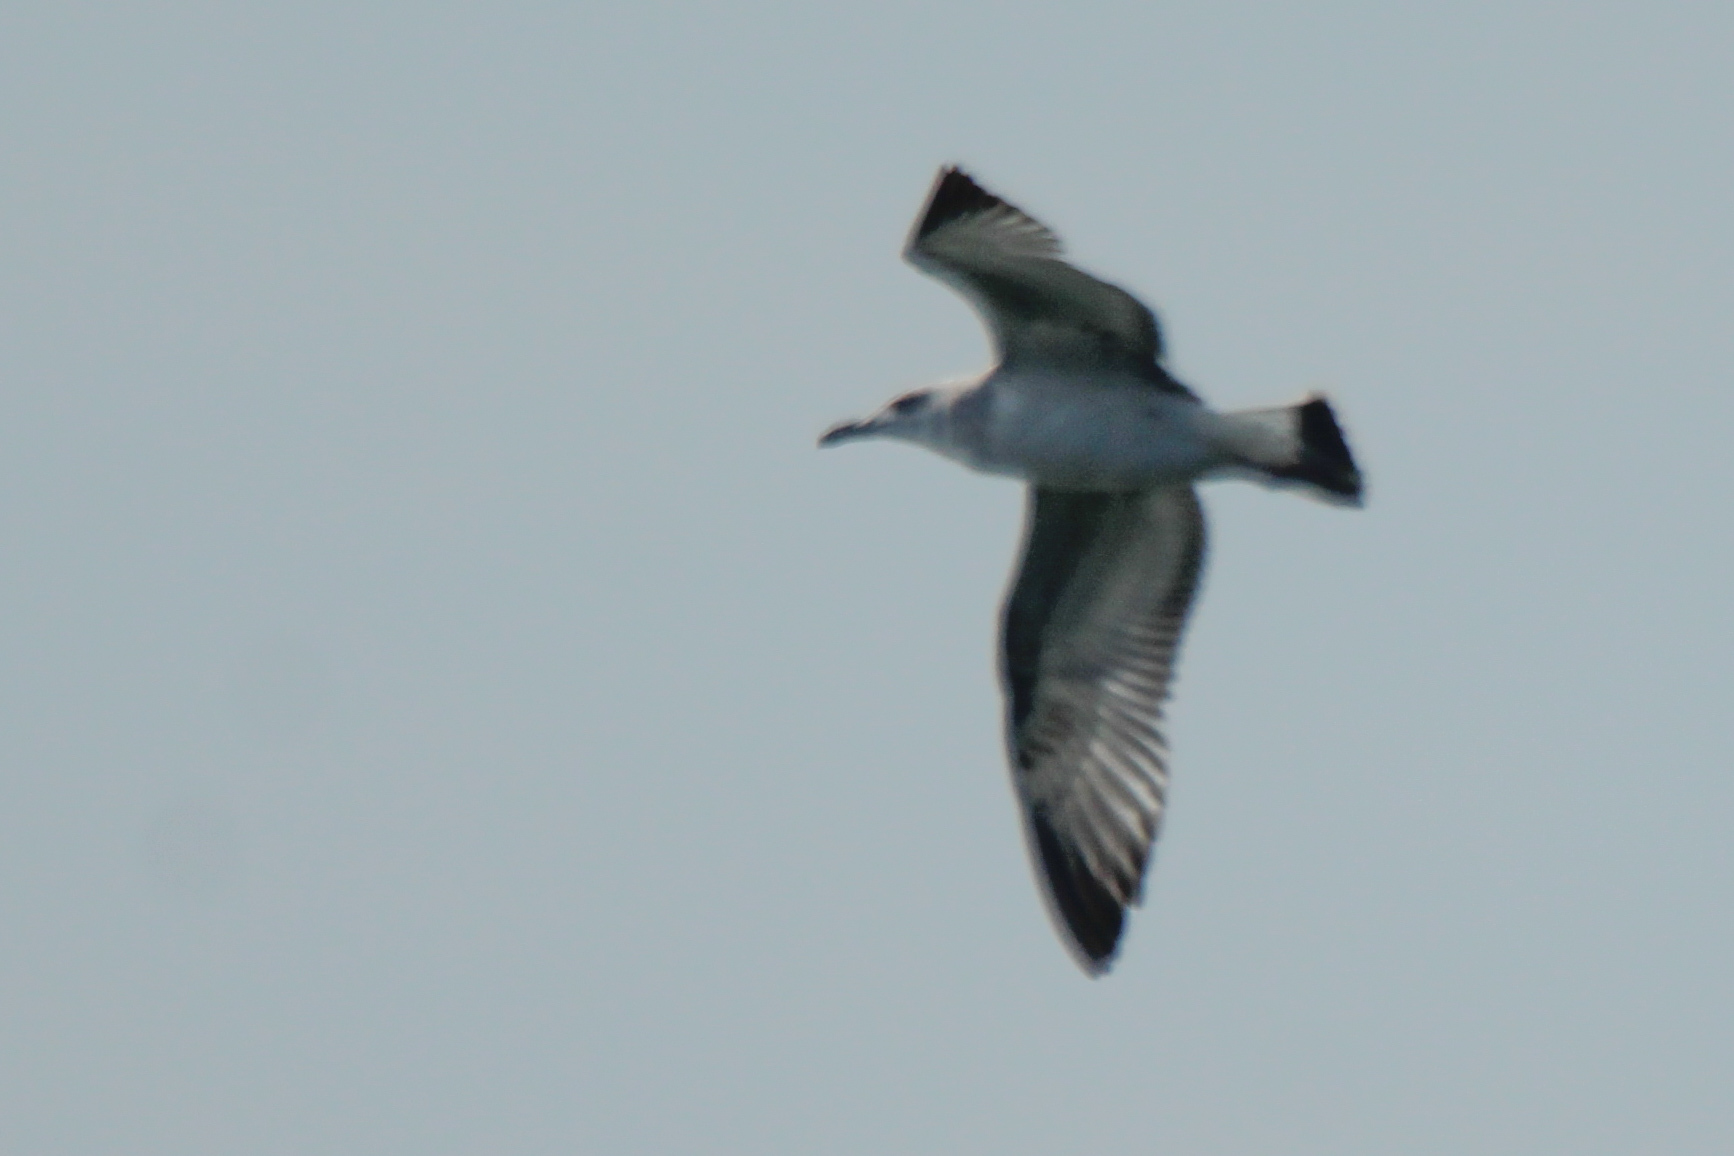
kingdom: Animalia
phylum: Chordata
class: Aves
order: Charadriiformes
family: Laridae
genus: Ichthyaetus
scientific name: Ichthyaetus ichthyaetus
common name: Pallas's gull
